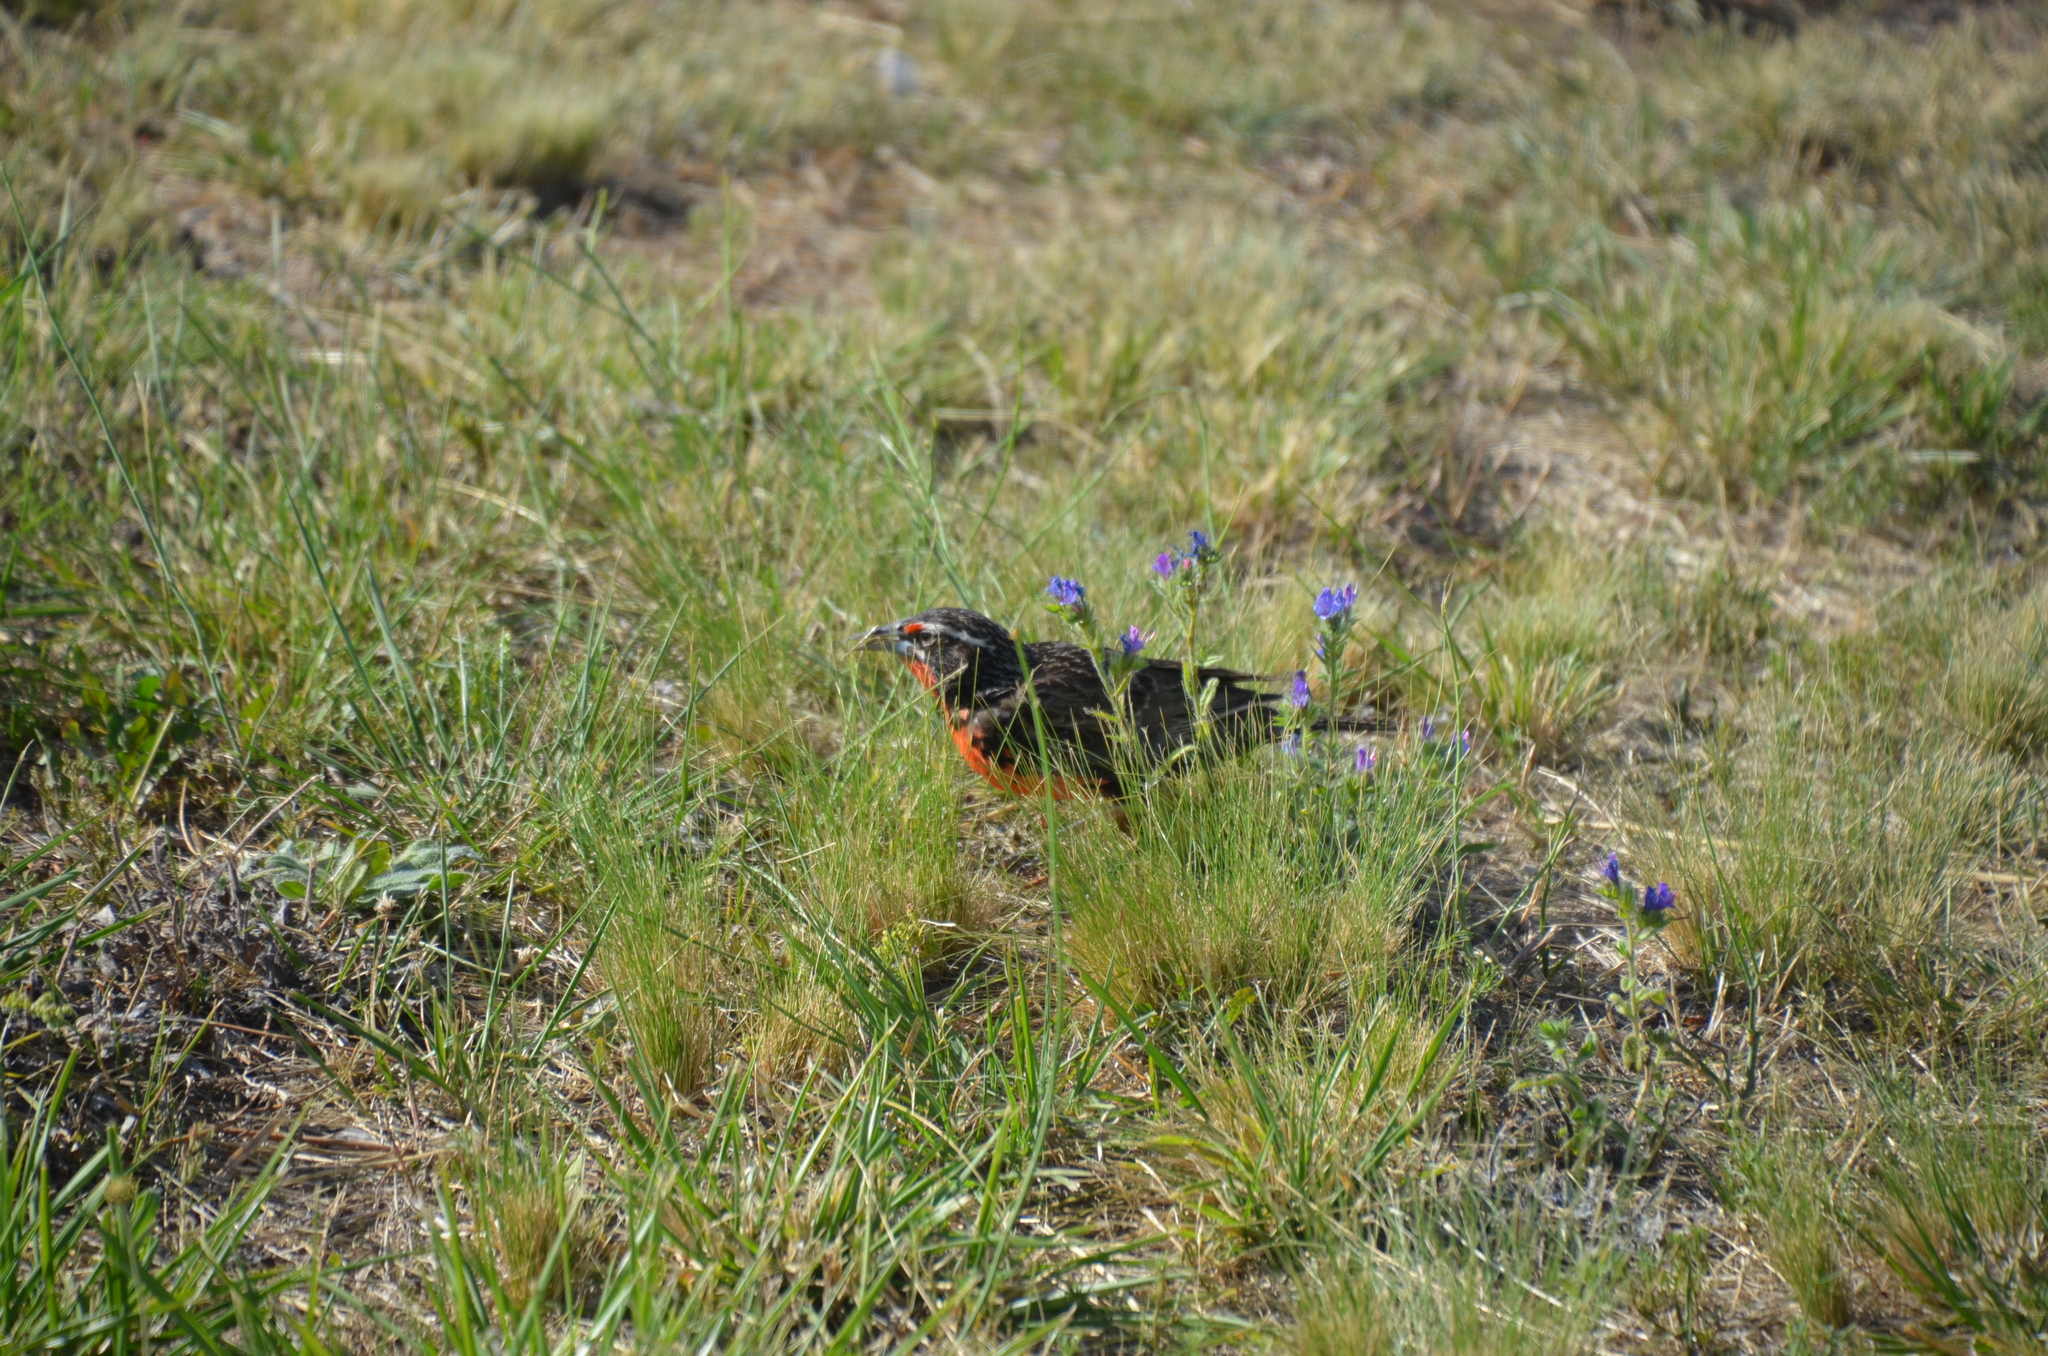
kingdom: Animalia
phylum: Chordata
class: Aves
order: Passeriformes
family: Icteridae
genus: Sturnella
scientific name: Sturnella loyca
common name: Long-tailed meadowlark
